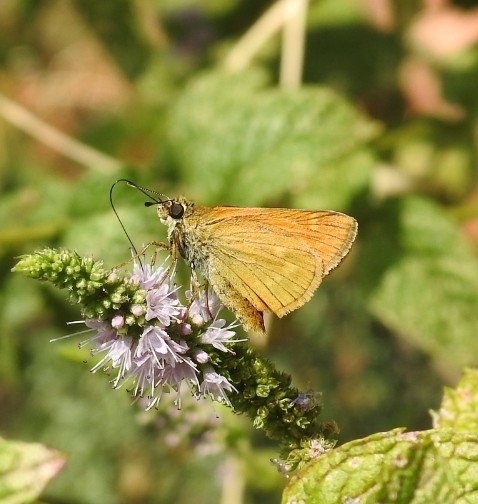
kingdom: Animalia
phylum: Arthropoda
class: Insecta
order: Lepidoptera
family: Hesperiidae
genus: Ochlodes
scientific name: Ochlodes venata
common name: Large skipper
